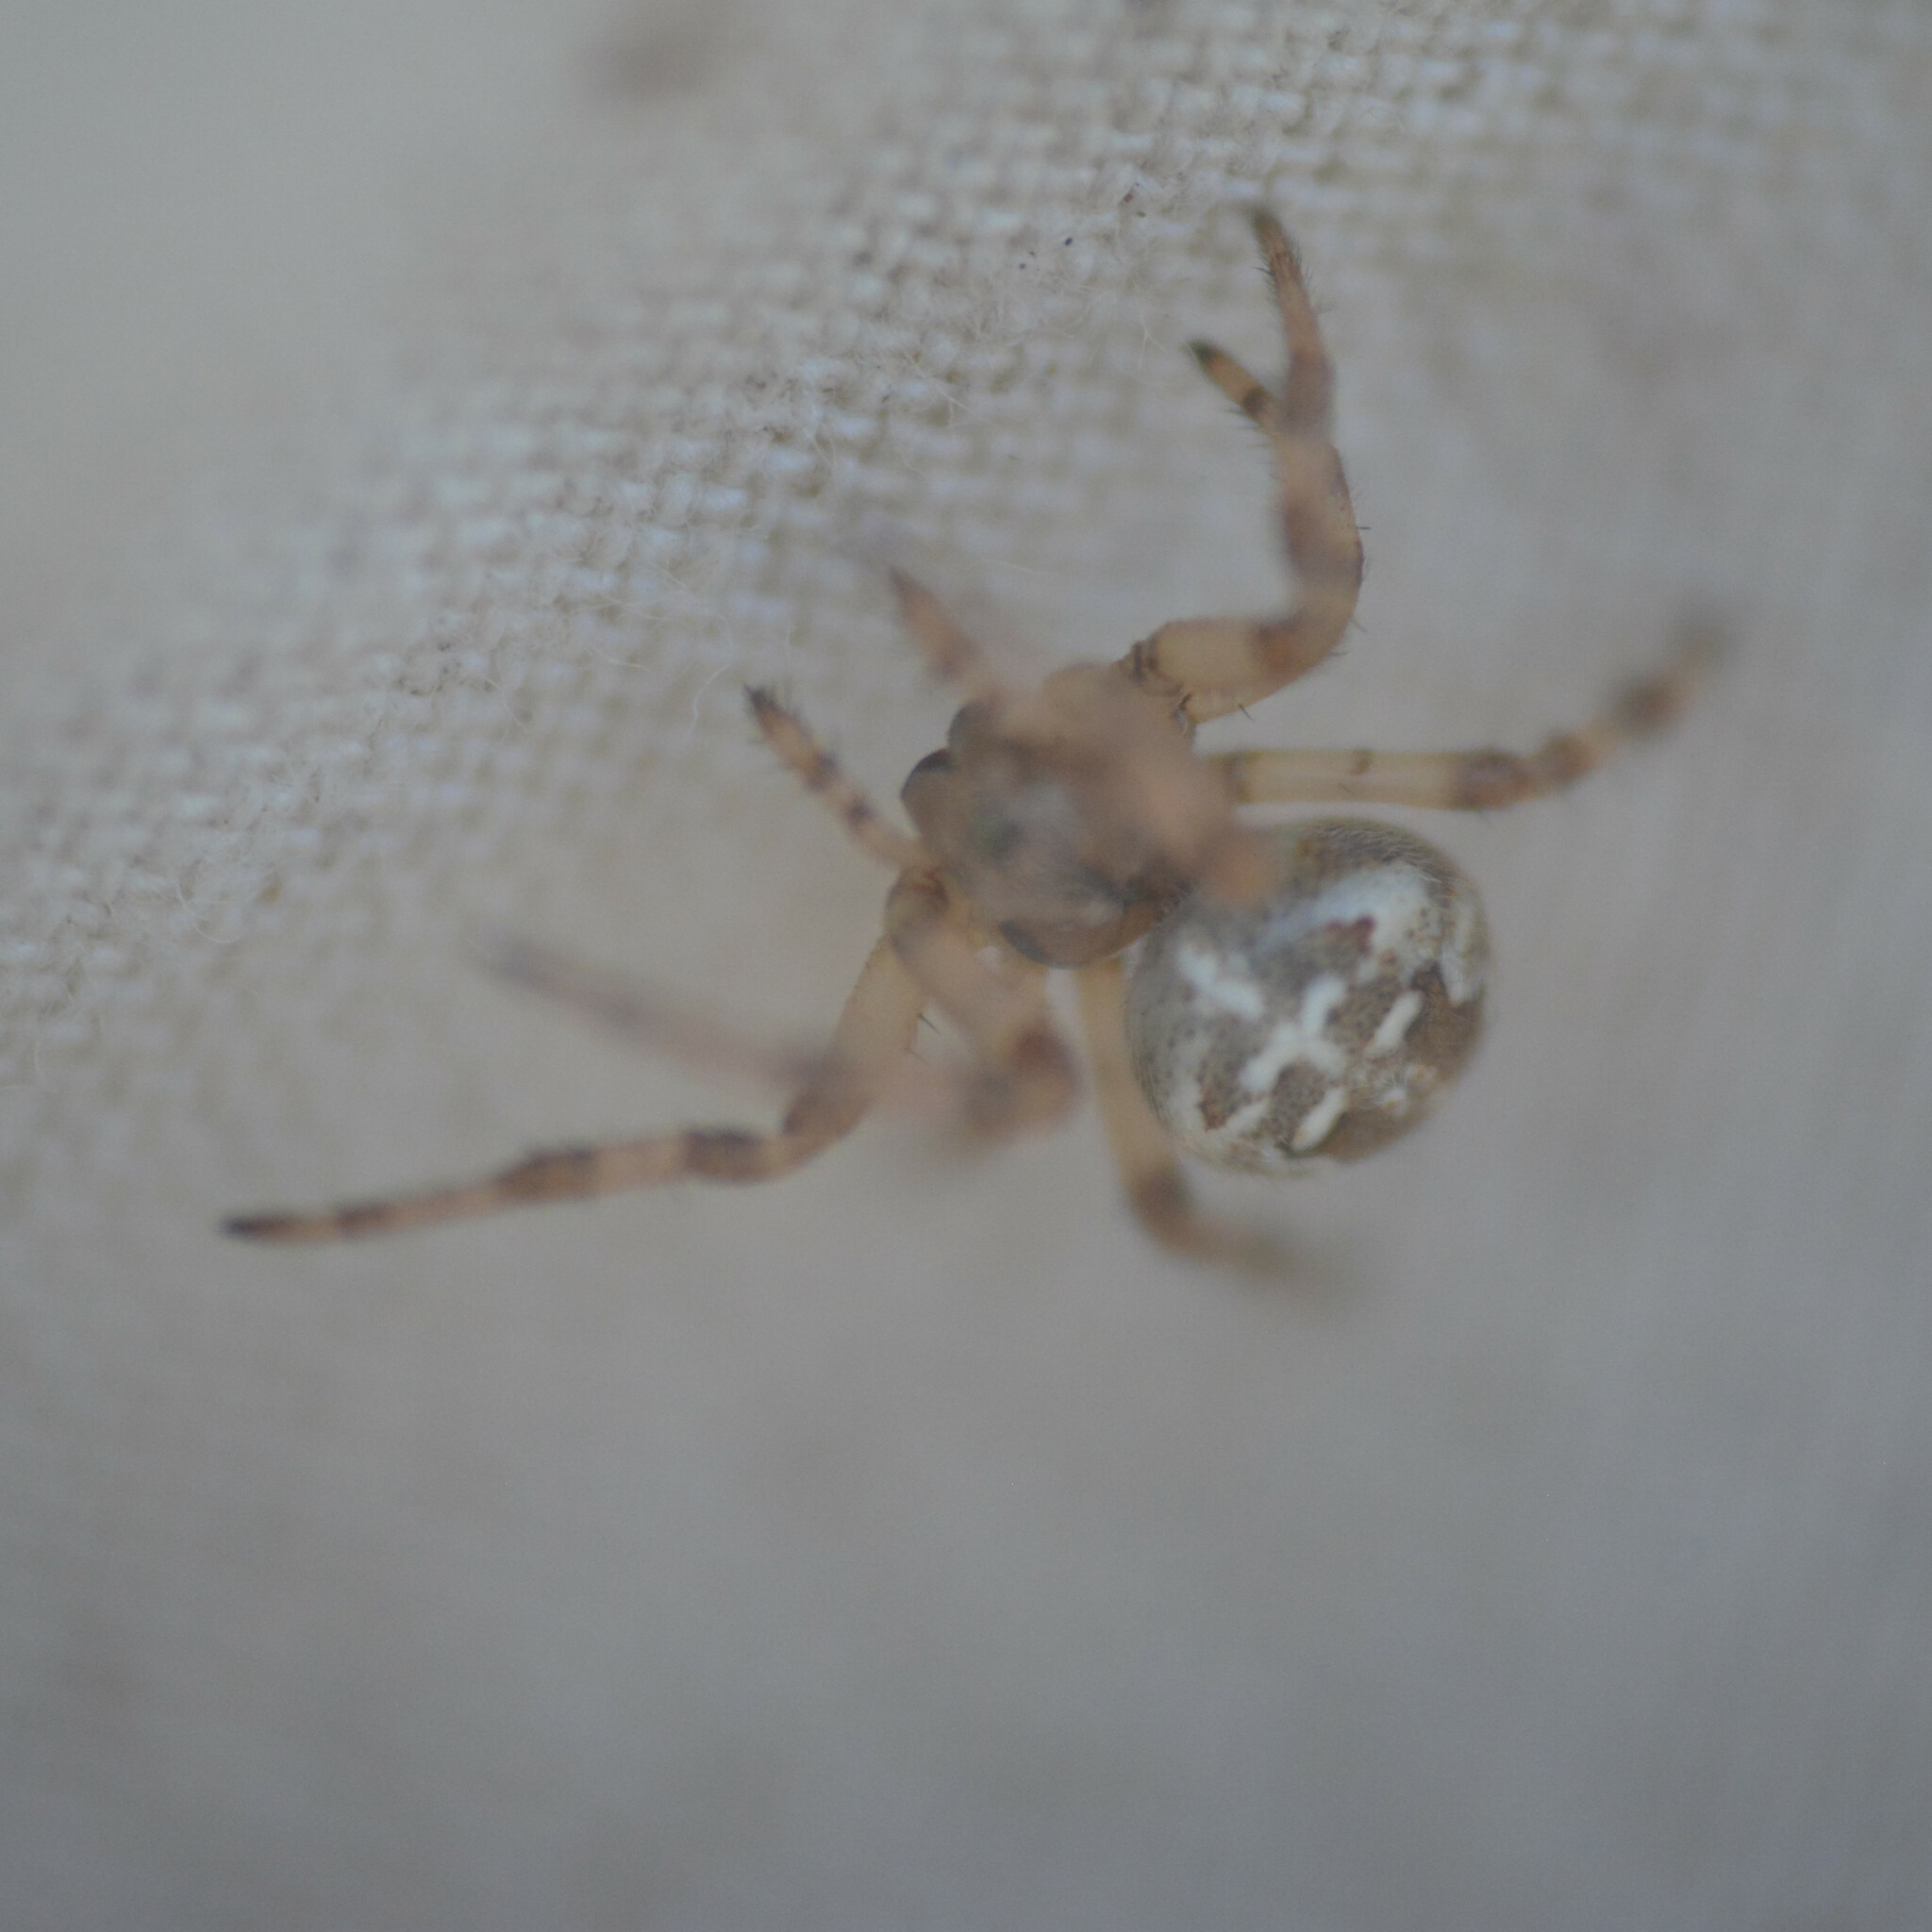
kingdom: Animalia
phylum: Arthropoda
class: Arachnida
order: Araneae
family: Araneidae
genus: Araneus
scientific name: Araneus quadratus
